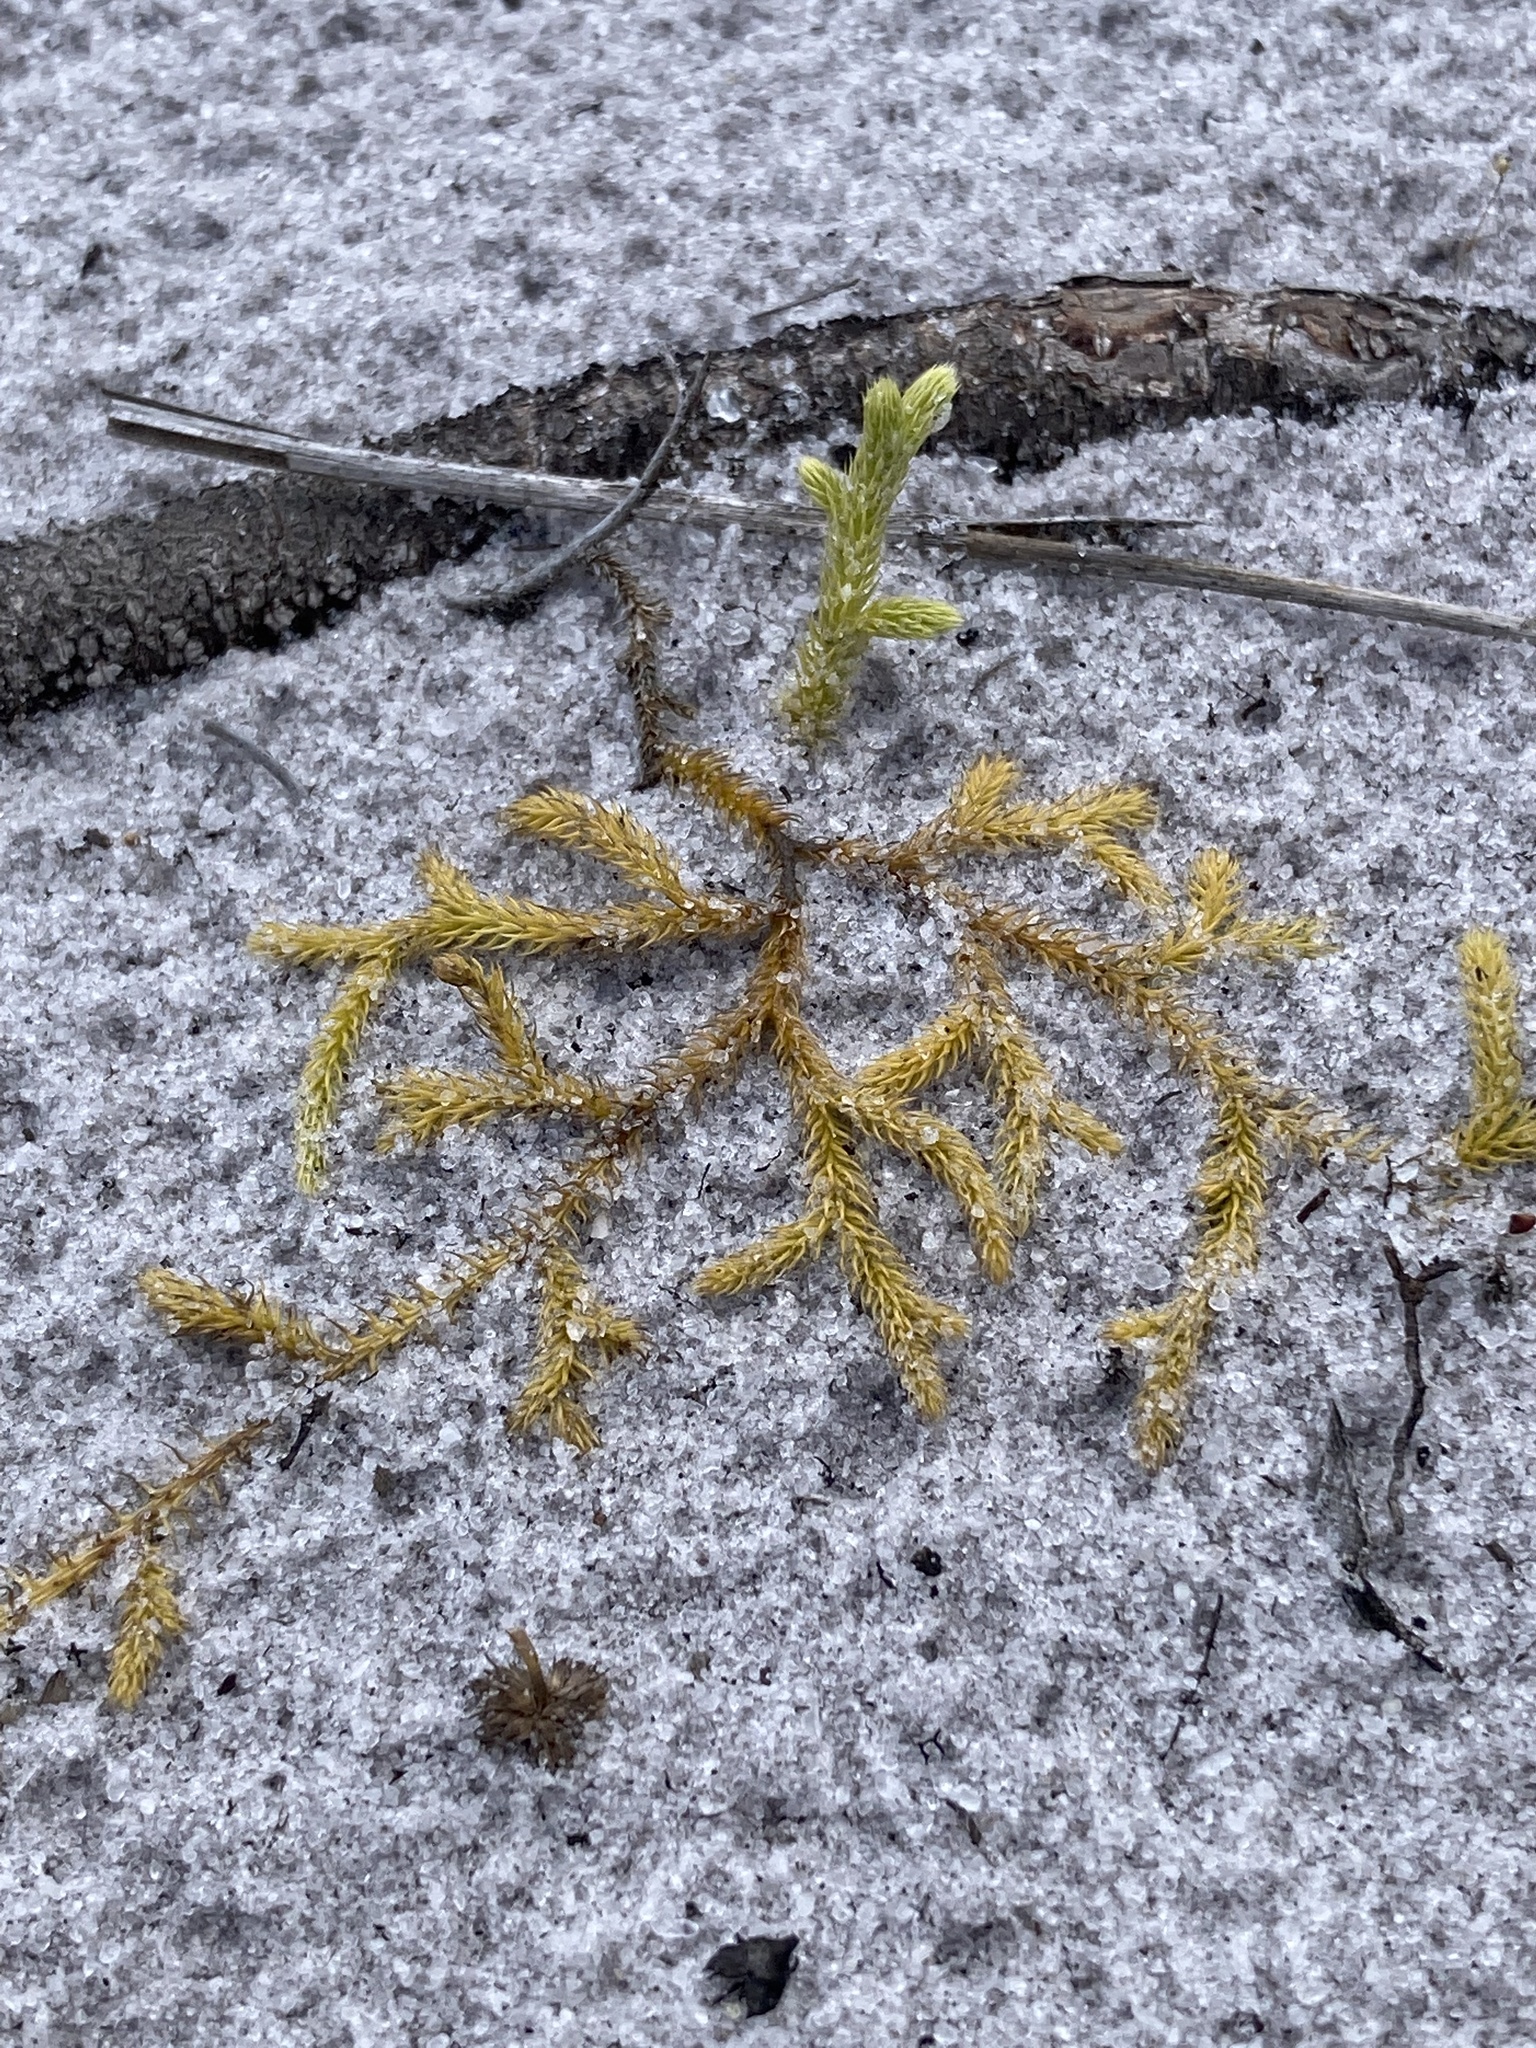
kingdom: Plantae
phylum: Tracheophyta
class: Lycopodiopsida
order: Lycopodiales
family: Lycopodiaceae
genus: Palhinhaea
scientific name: Palhinhaea cernua
